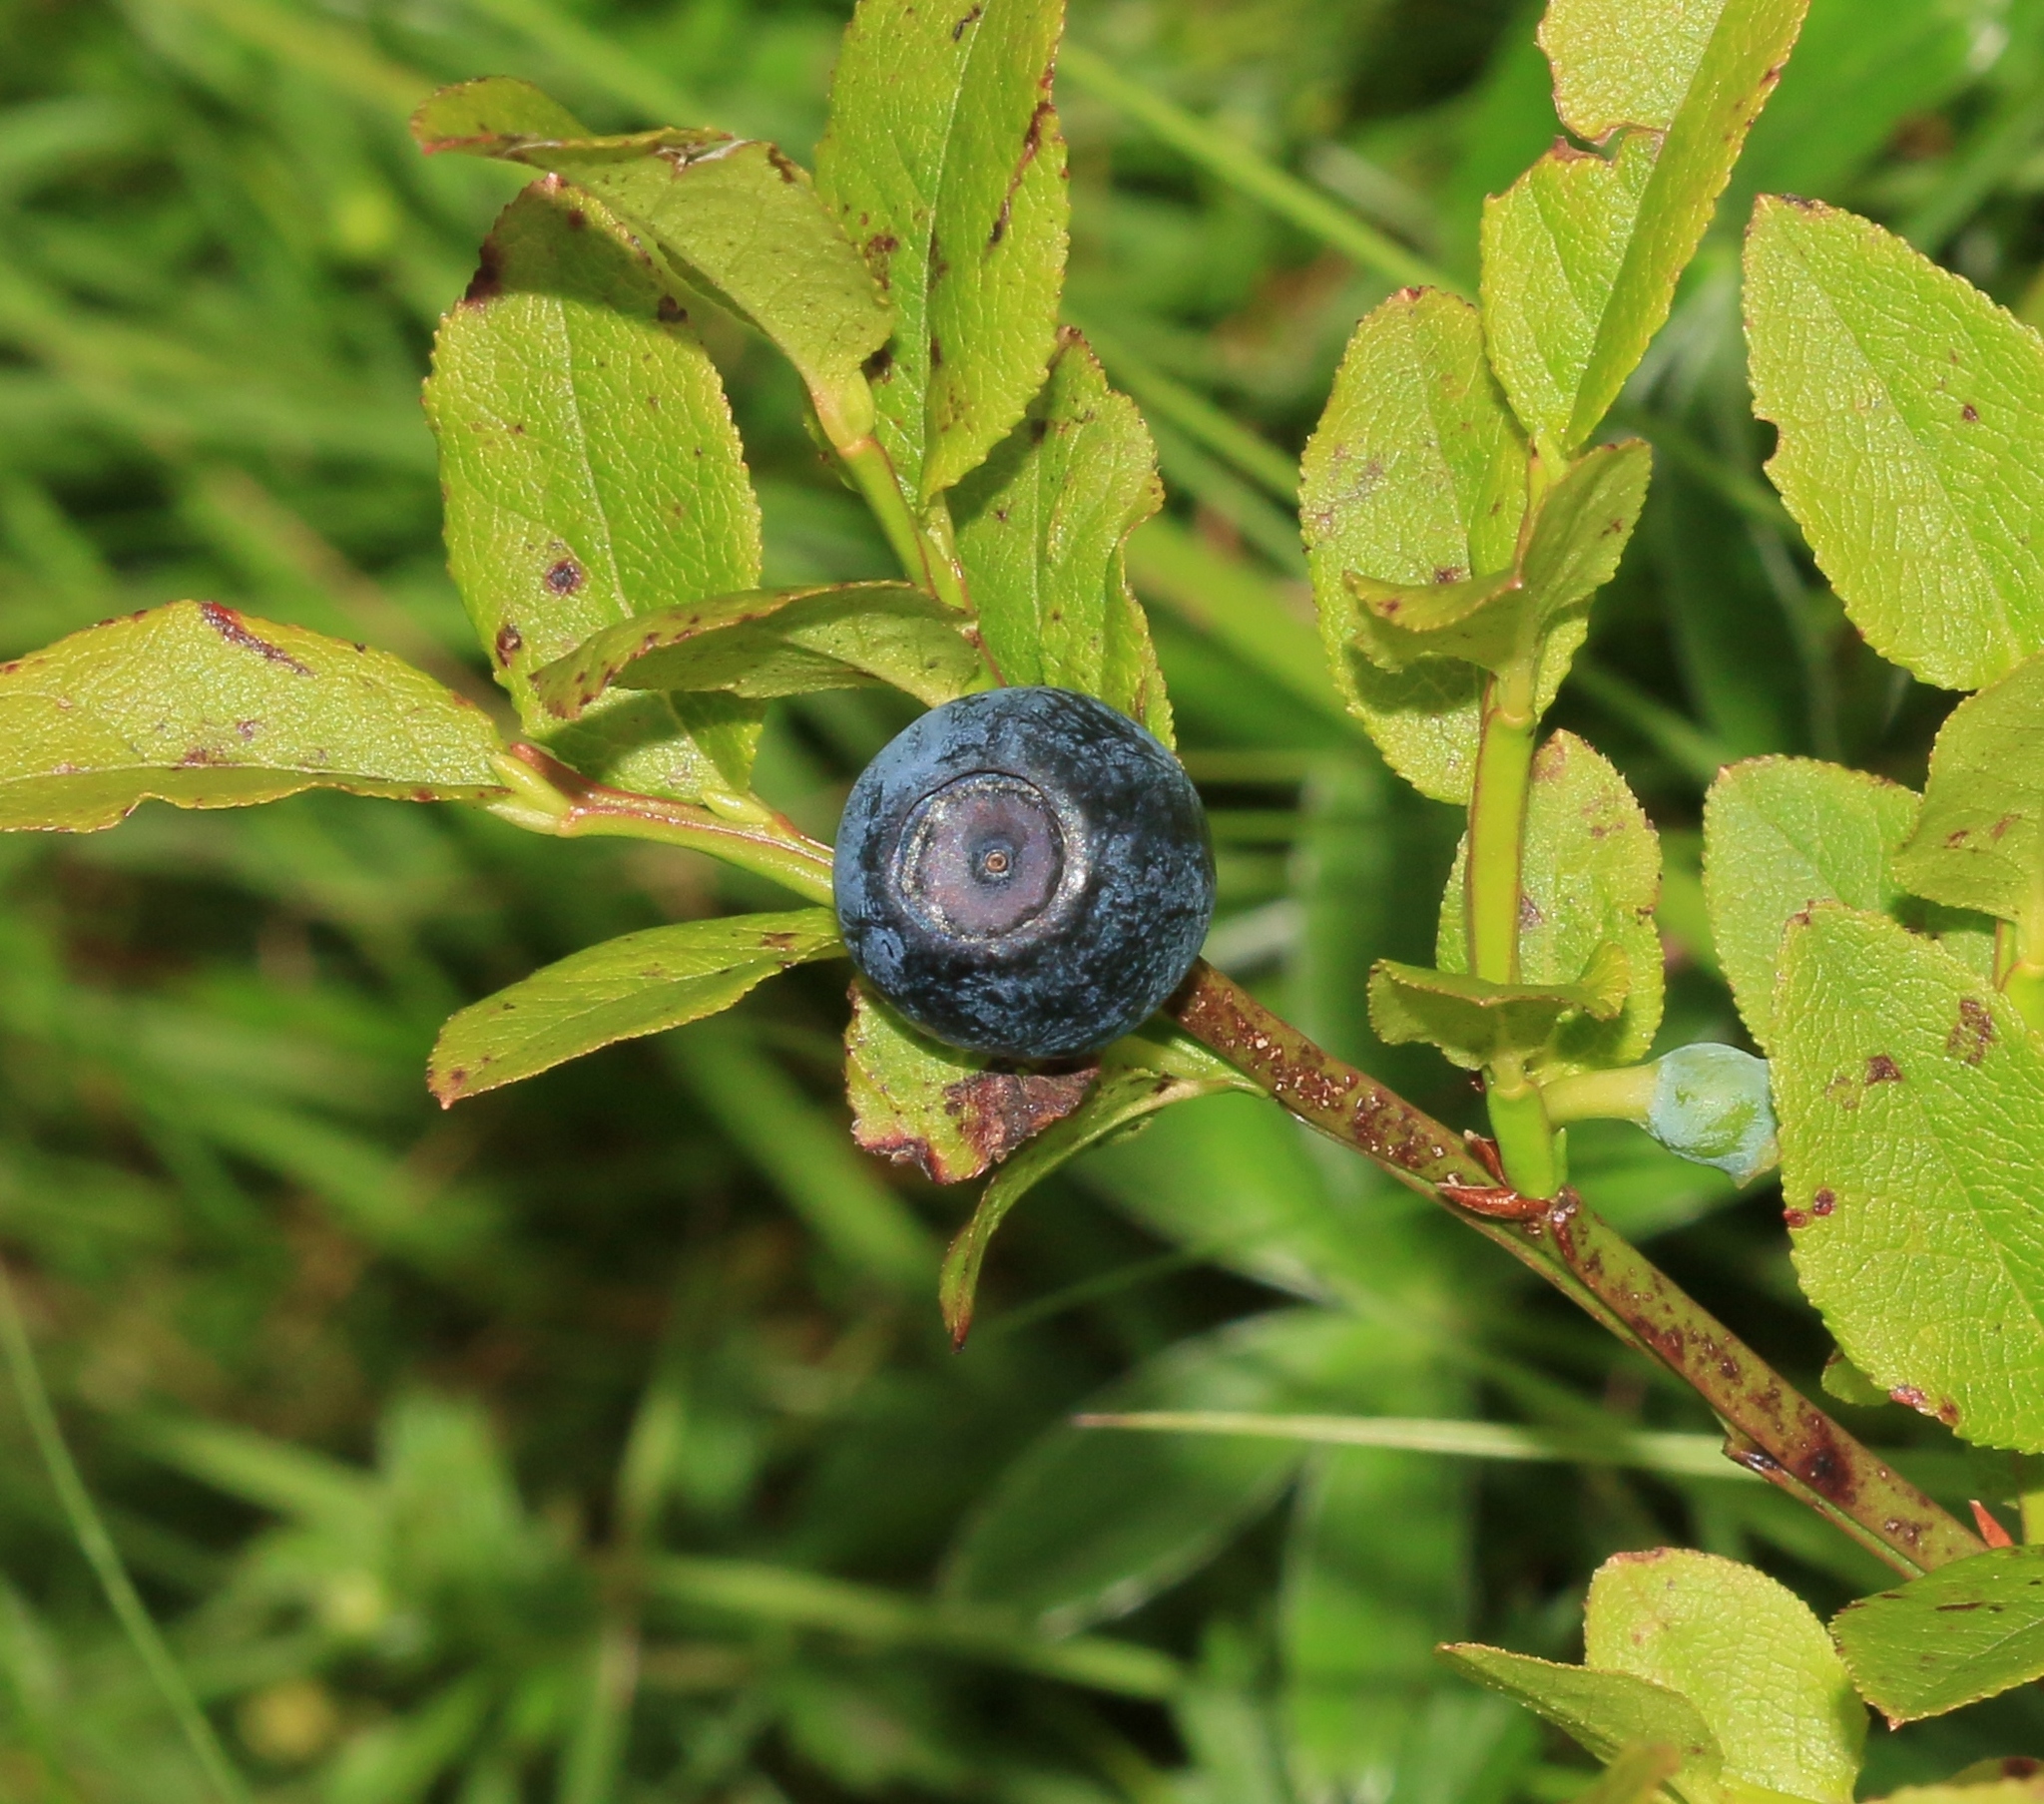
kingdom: Plantae
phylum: Tracheophyta
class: Magnoliopsida
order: Ericales
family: Ericaceae
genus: Vaccinium
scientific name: Vaccinium myrtillus
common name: Bilberry
